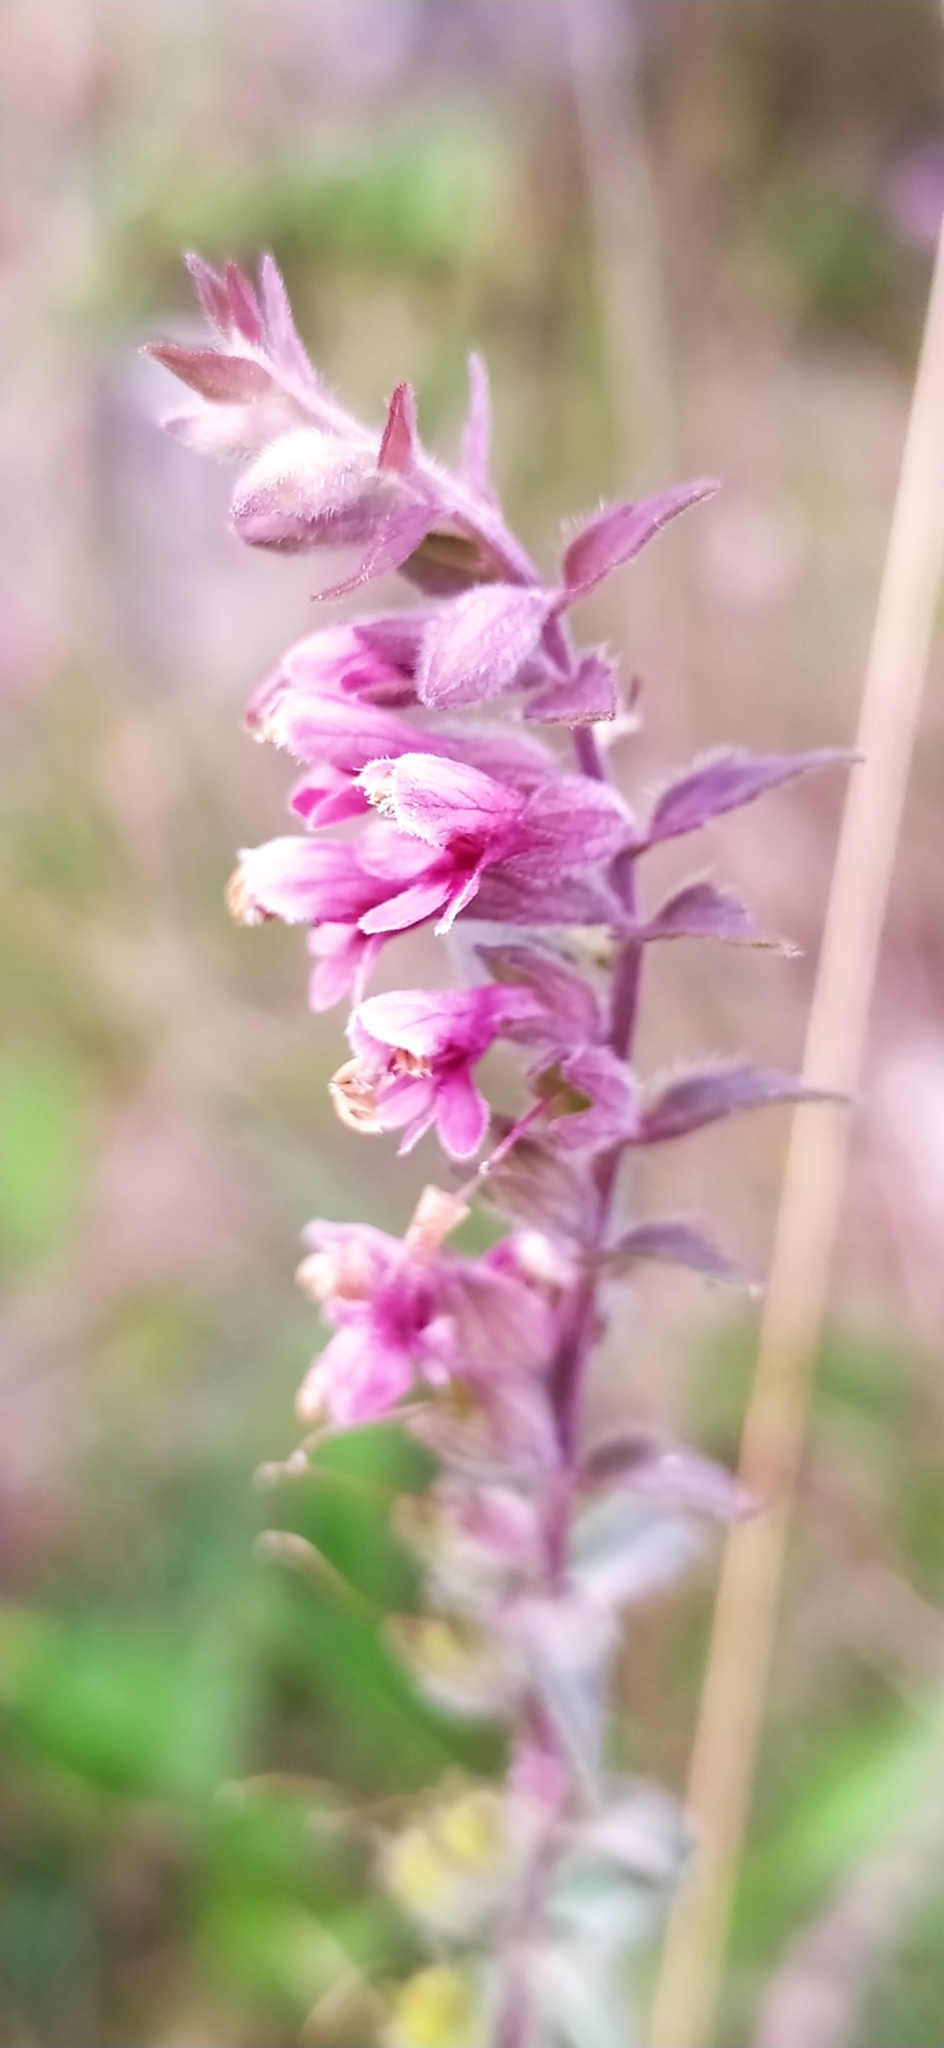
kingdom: Plantae
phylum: Tracheophyta
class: Magnoliopsida
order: Lamiales
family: Orobanchaceae
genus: Odontites
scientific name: Odontites vulgaris
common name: Broomrape
